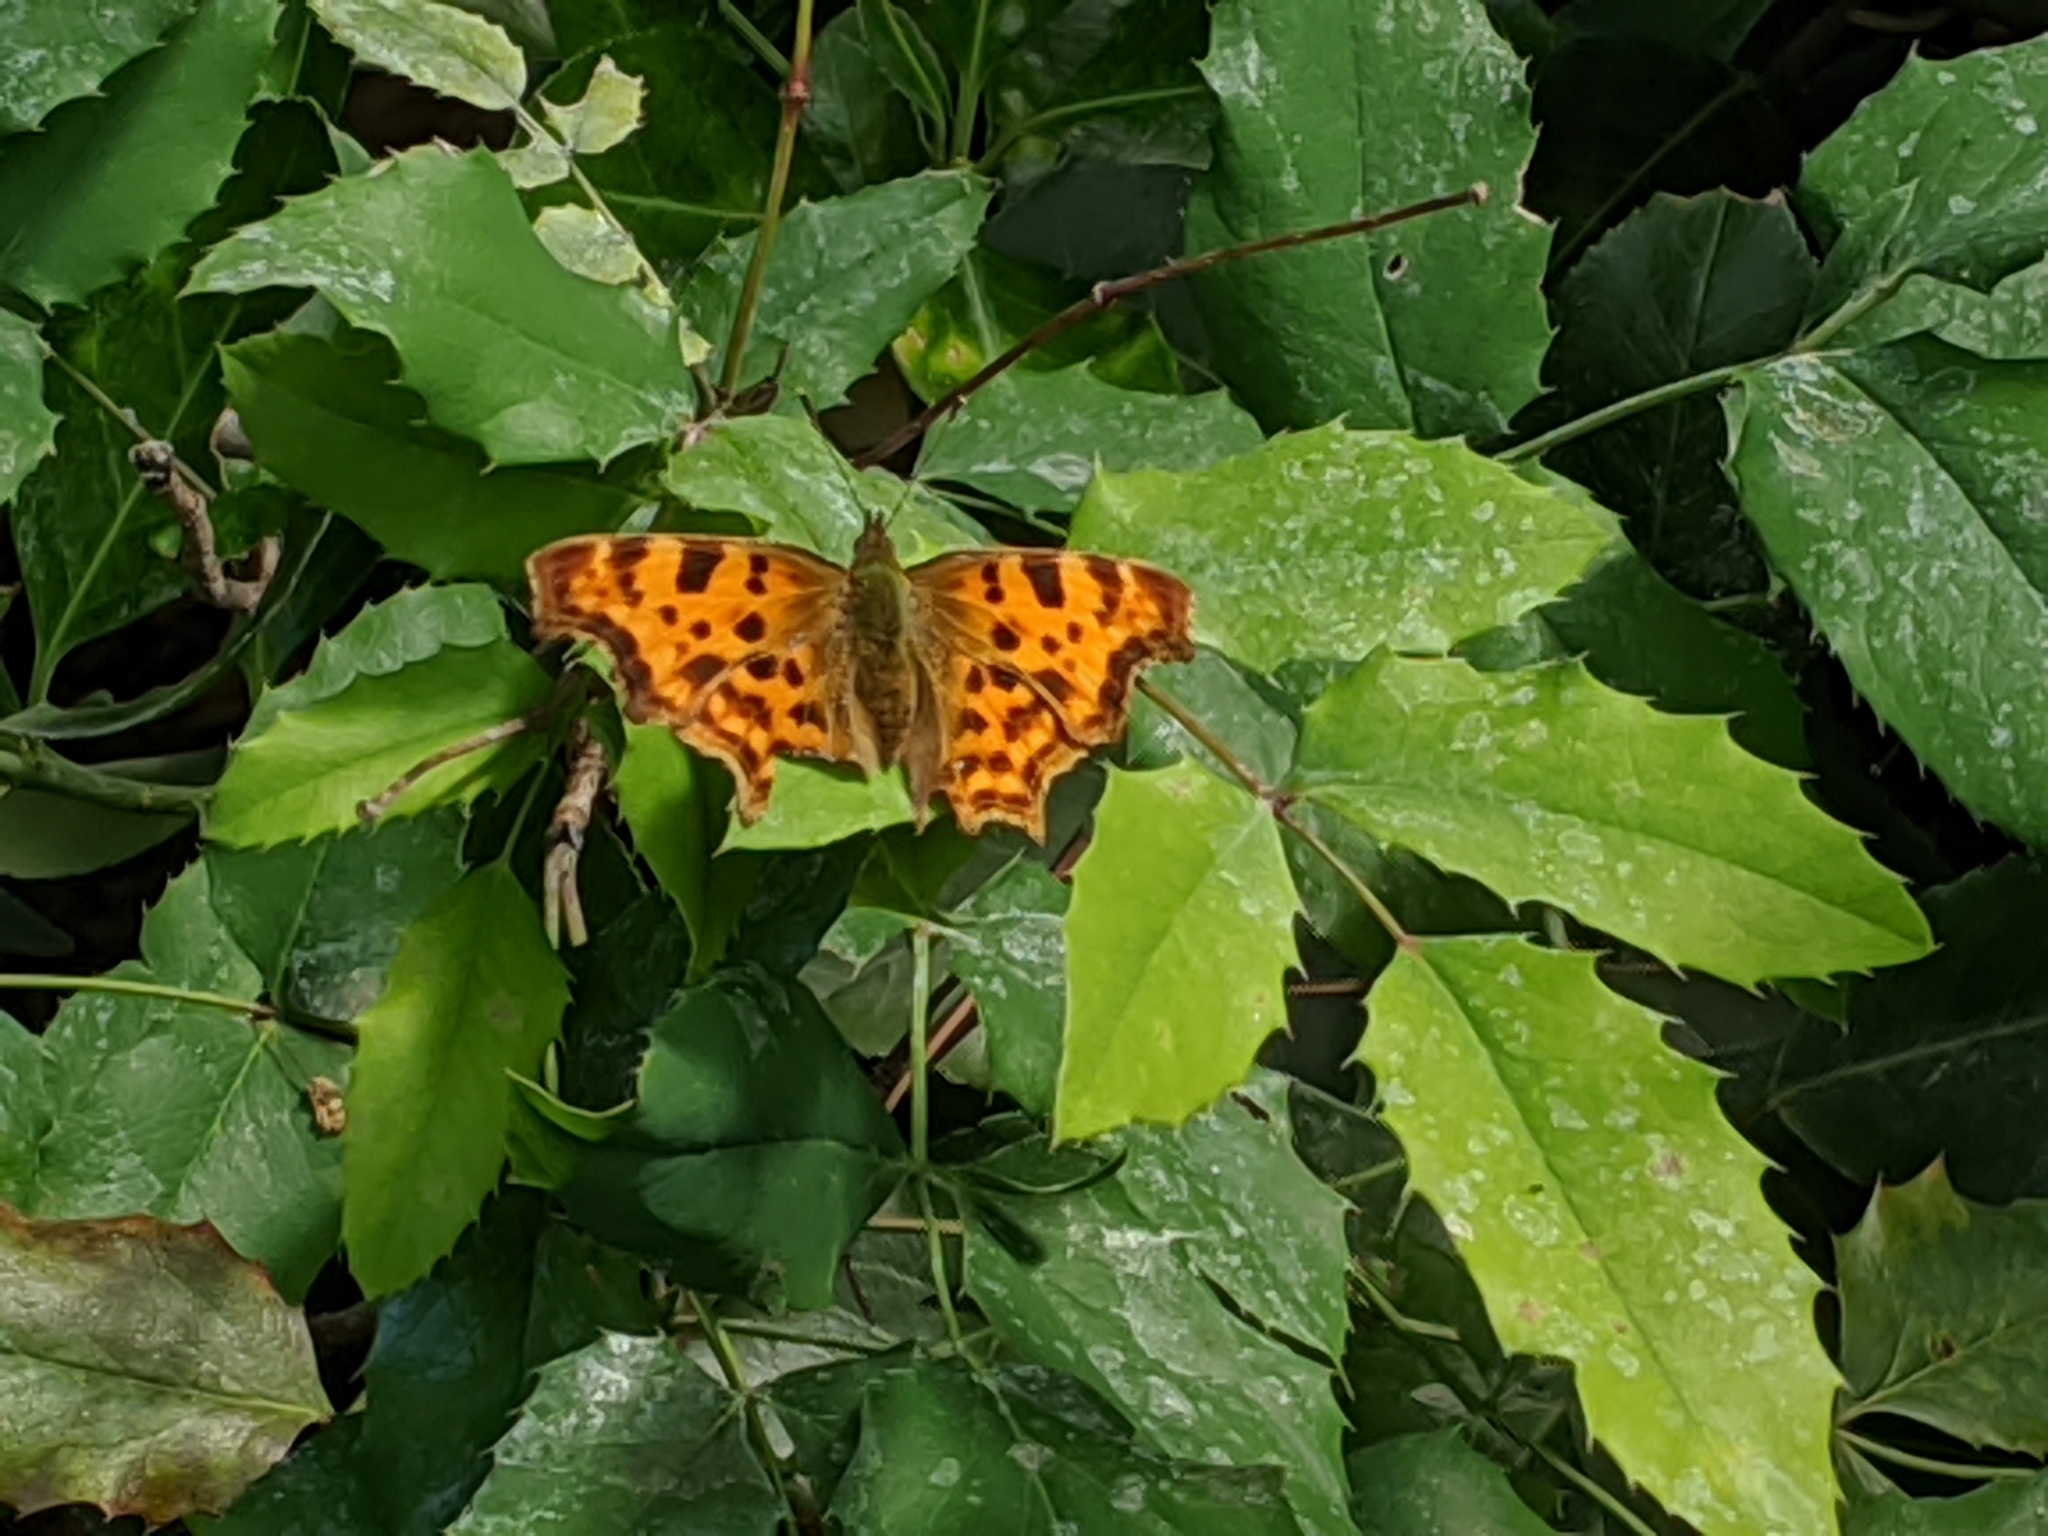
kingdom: Animalia
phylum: Arthropoda
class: Insecta
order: Lepidoptera
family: Nymphalidae
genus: Polygonia
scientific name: Polygonia c-album
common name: Comma
